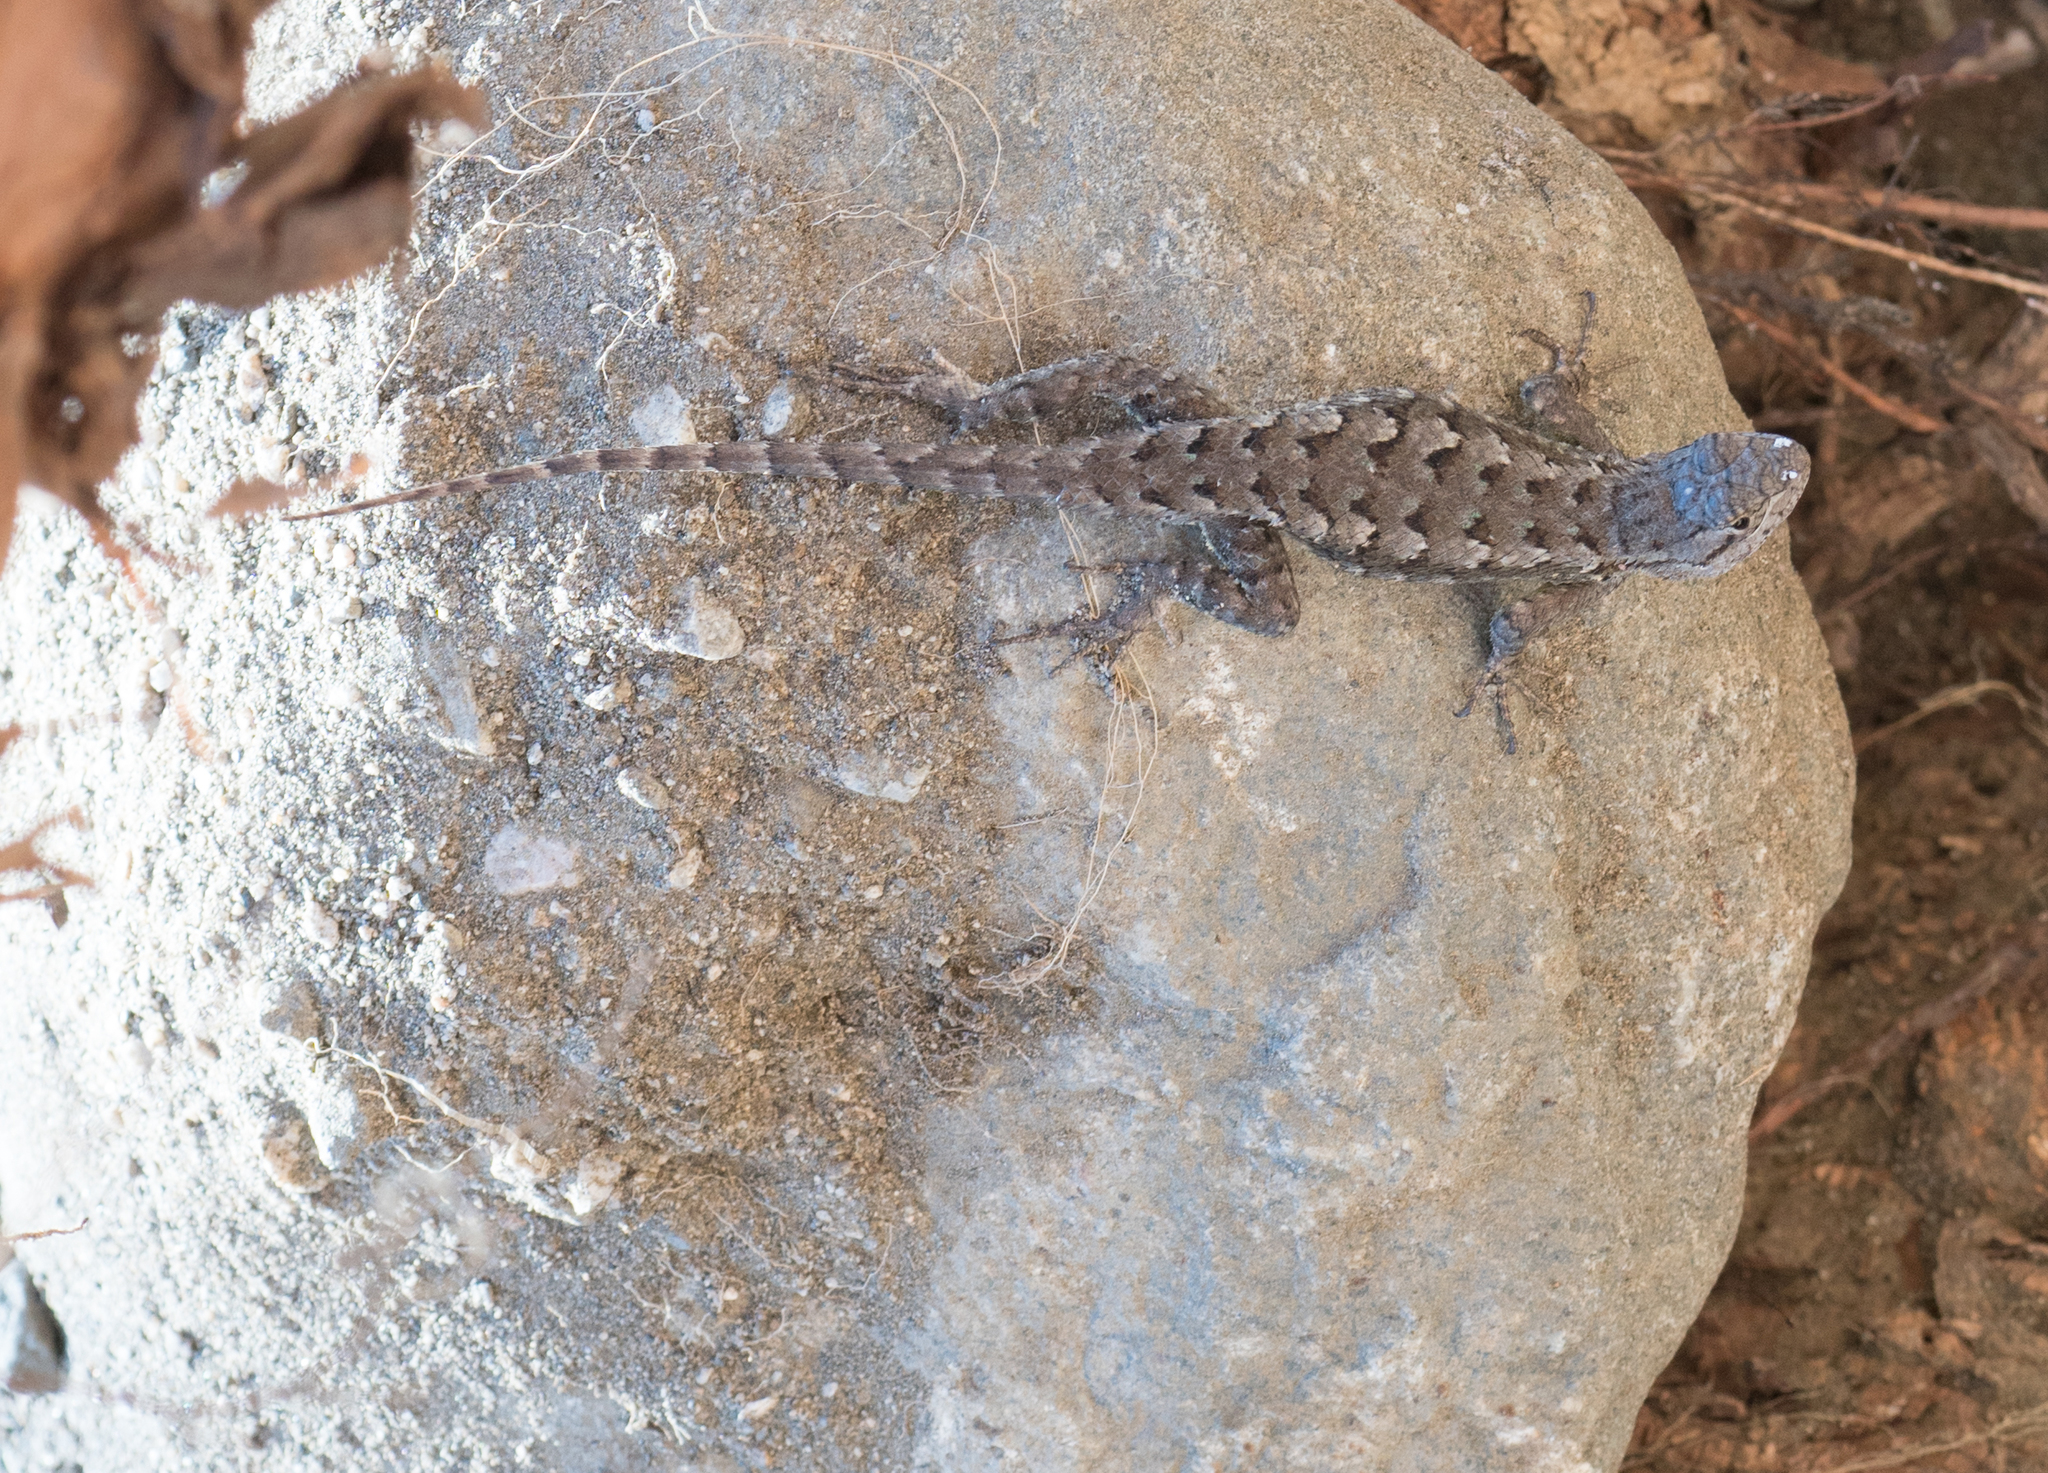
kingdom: Animalia
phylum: Chordata
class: Squamata
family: Phrynosomatidae
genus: Sceloporus
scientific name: Sceloporus occidentalis
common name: Western fence lizard
